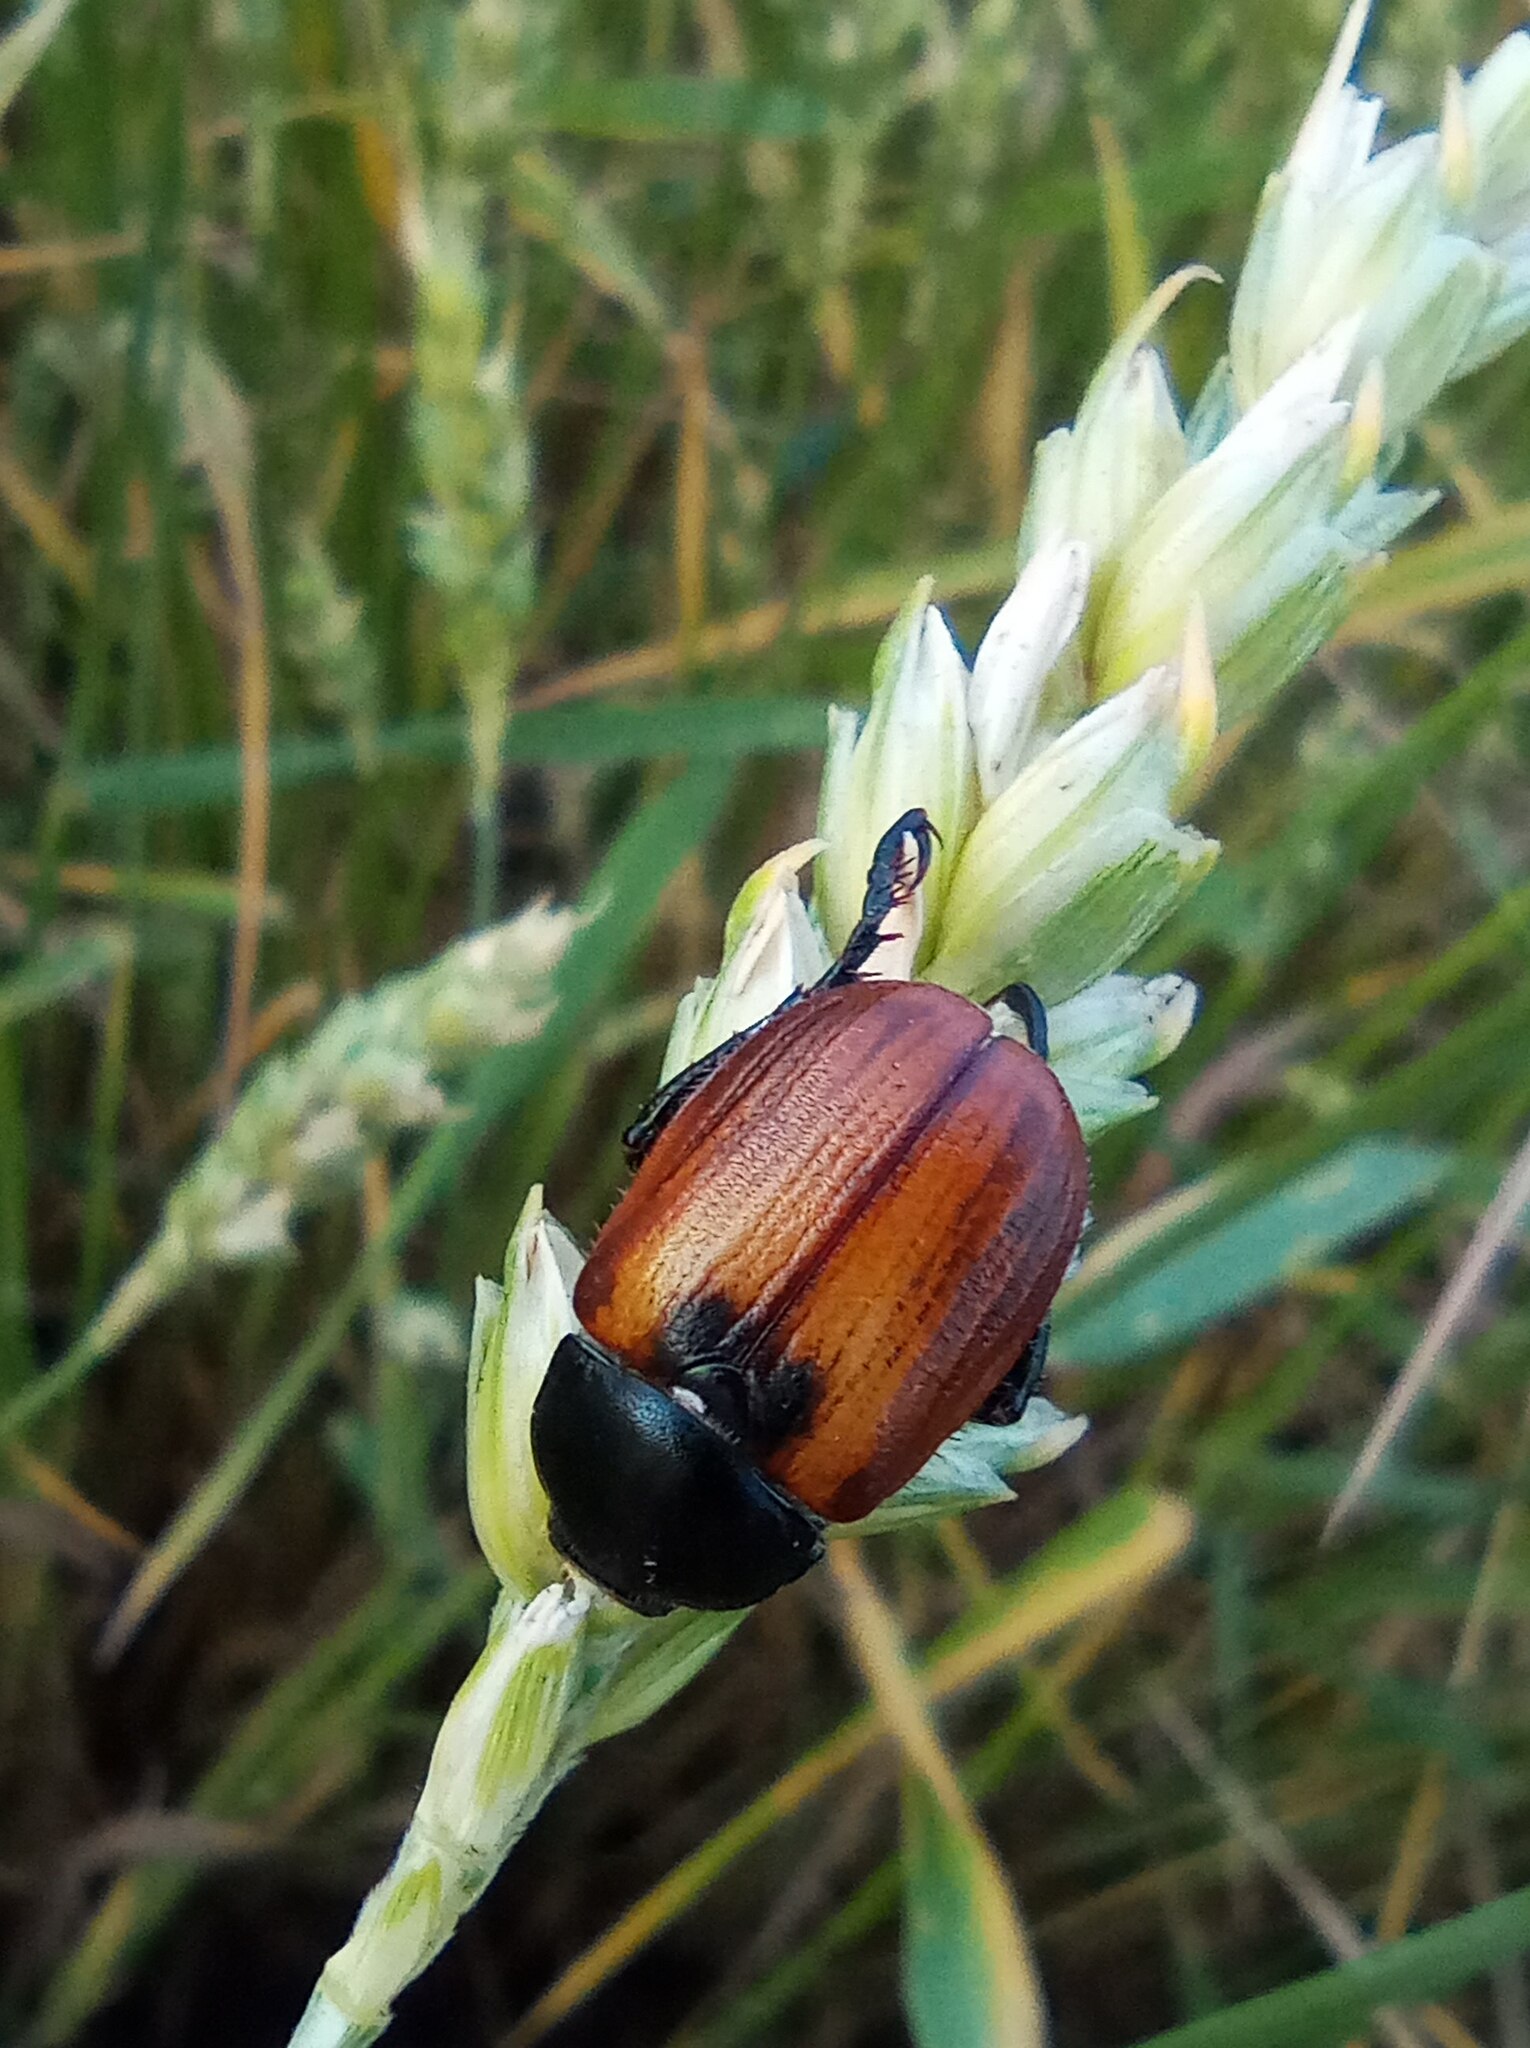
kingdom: Animalia
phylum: Arthropoda
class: Insecta
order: Coleoptera
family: Scarabaeidae
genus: Anisoplia
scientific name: Anisoplia austriaca
